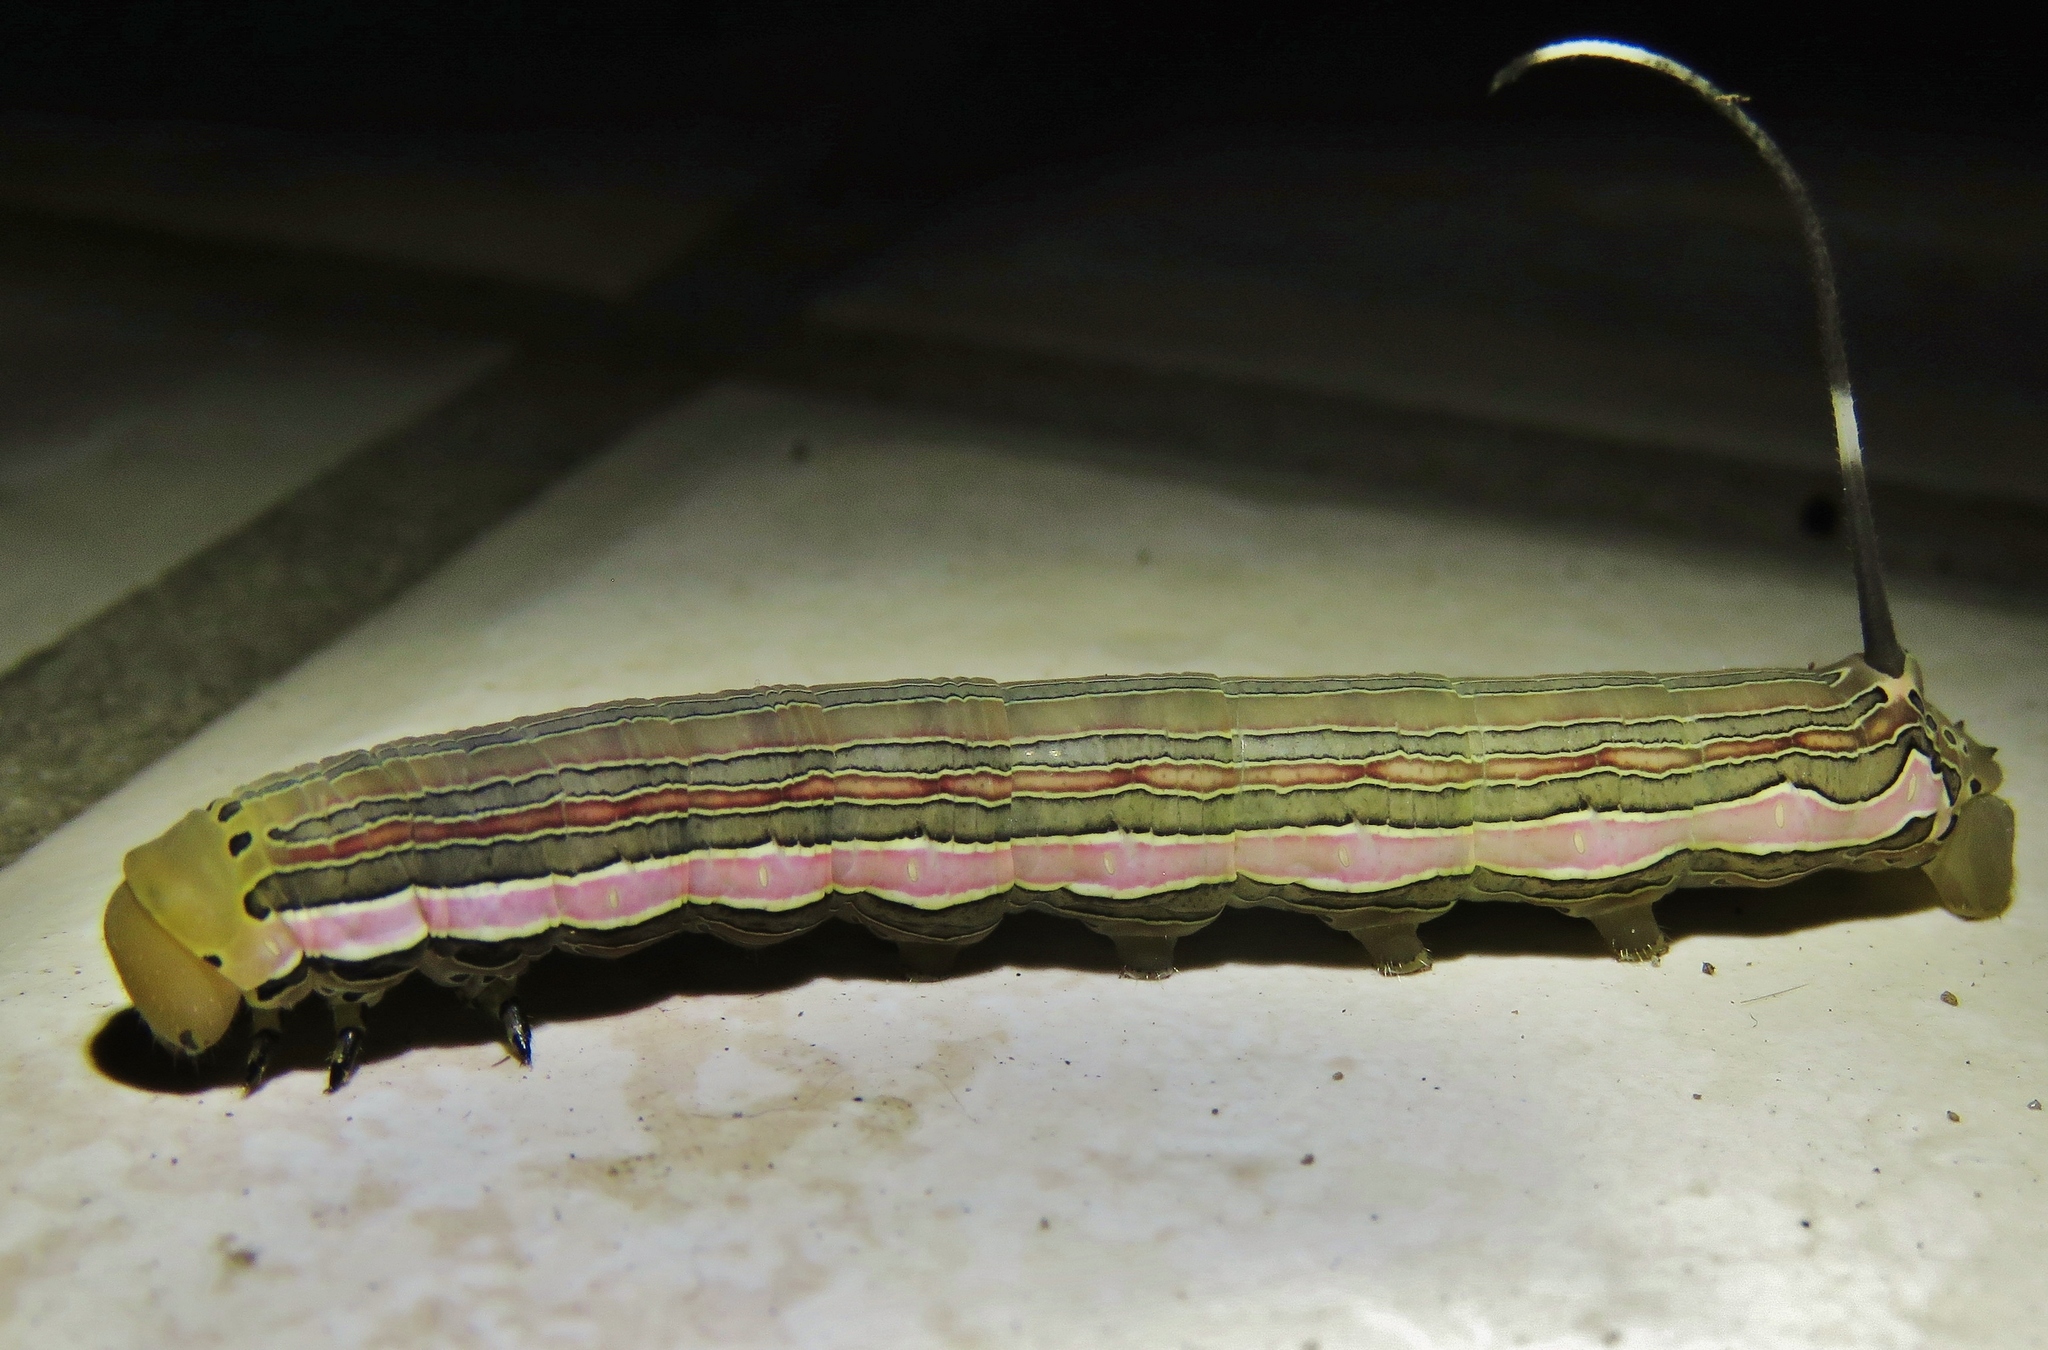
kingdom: Animalia
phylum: Arthropoda
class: Insecta
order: Lepidoptera
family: Sphingidae
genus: Isognathus
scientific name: Isognathus scyron
